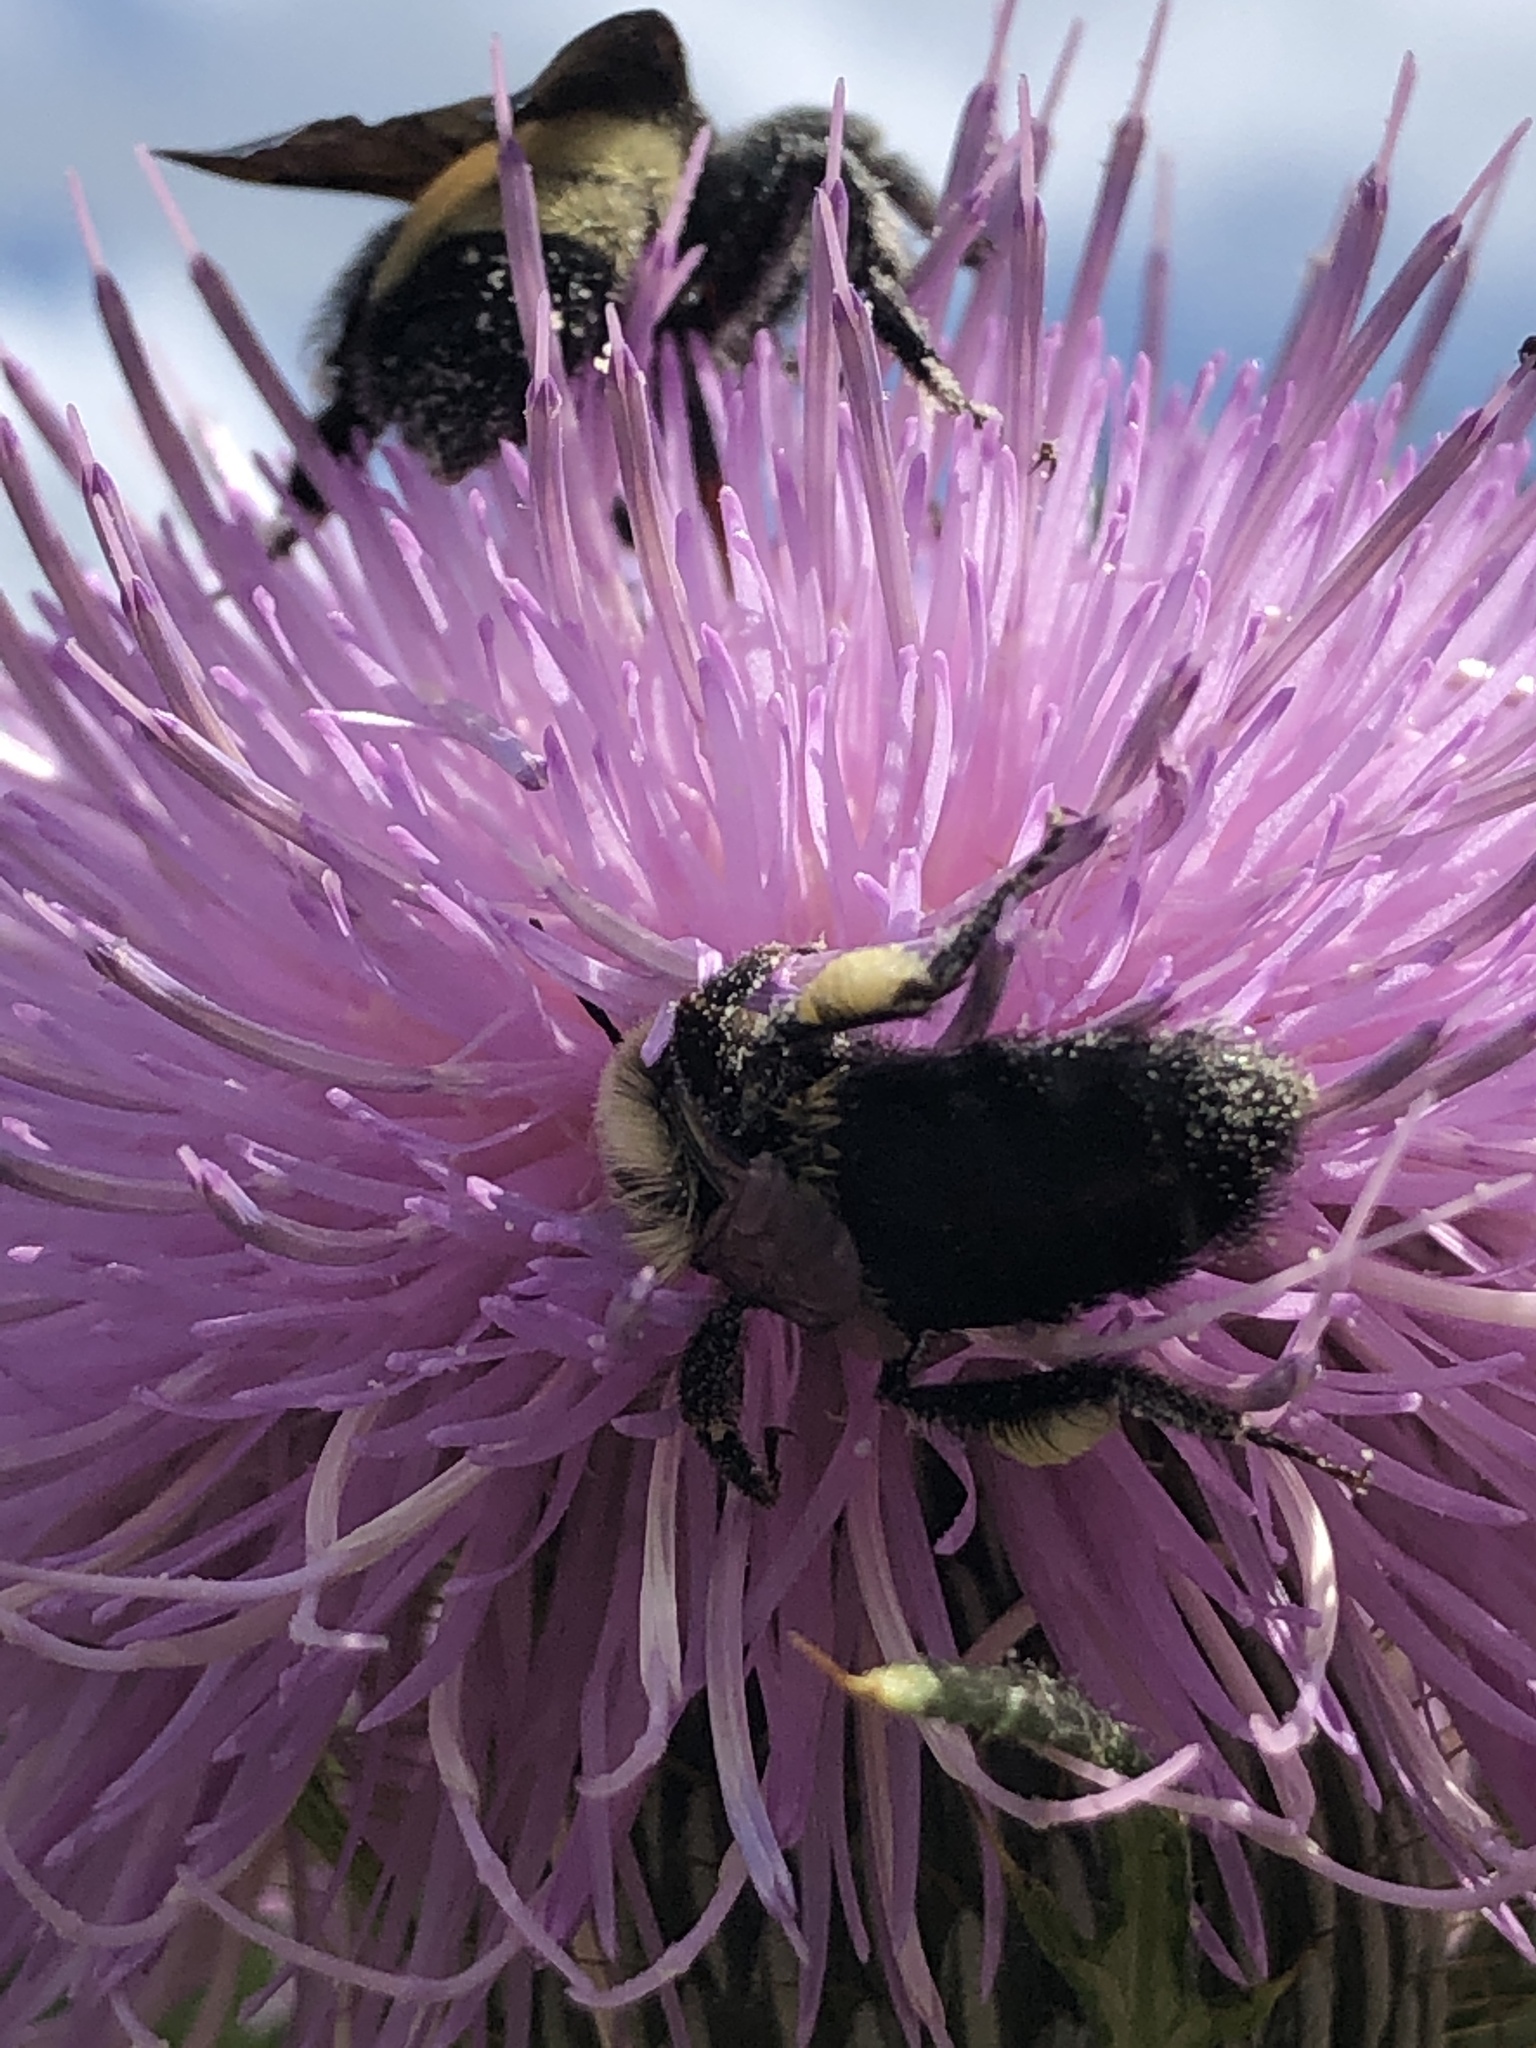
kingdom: Animalia
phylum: Arthropoda
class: Insecta
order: Hymenoptera
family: Apidae
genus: Bombus
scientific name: Bombus impatiens
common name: Common eastern bumble bee
